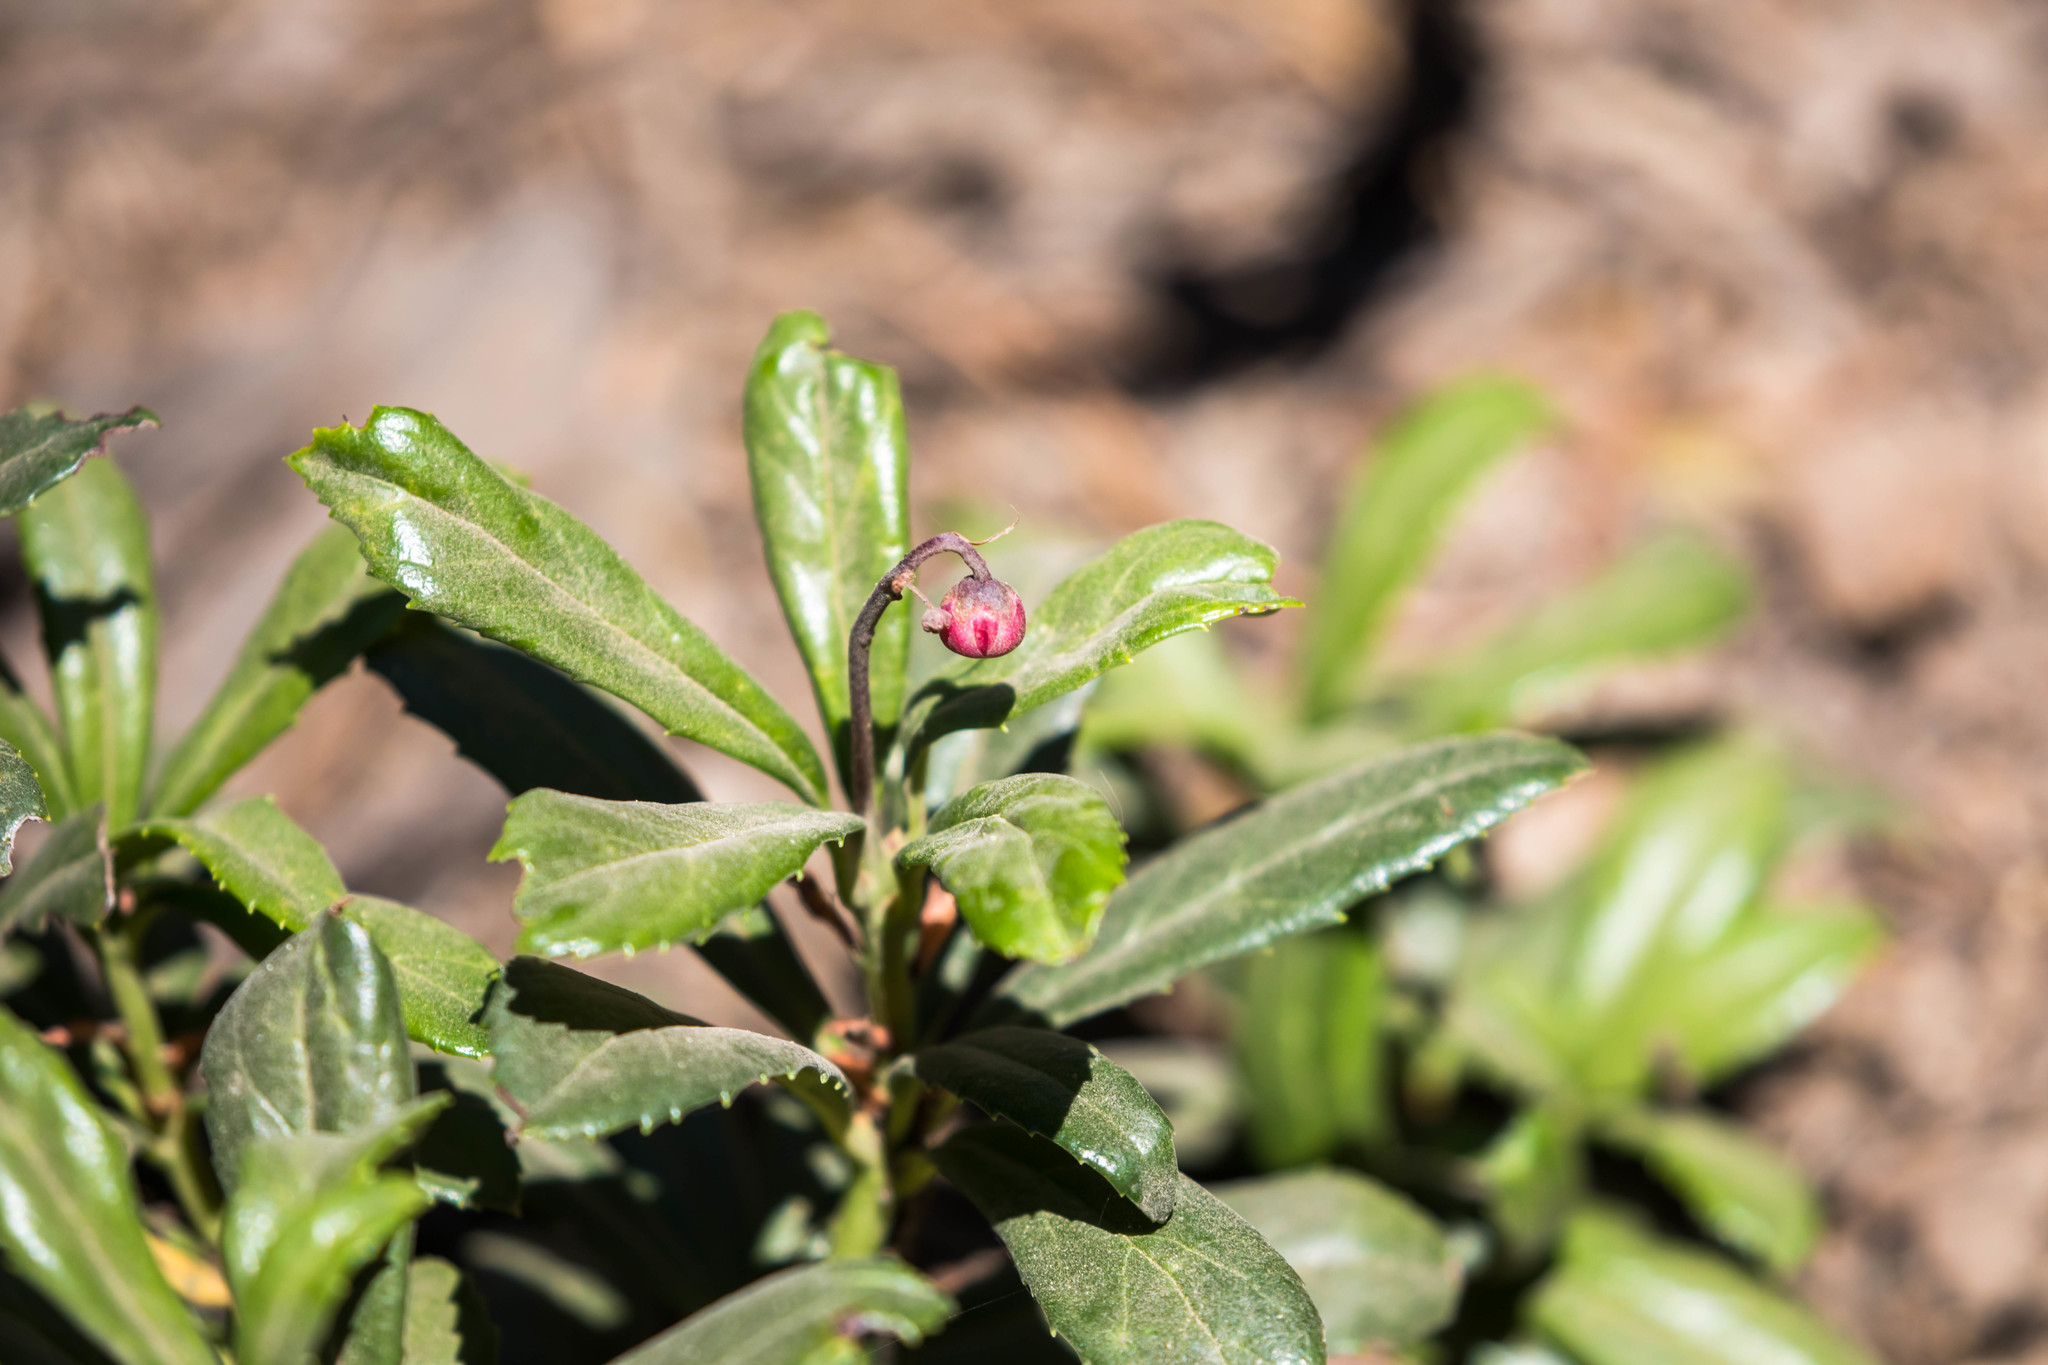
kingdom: Plantae
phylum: Tracheophyta
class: Magnoliopsida
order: Ericales
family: Ericaceae
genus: Chimaphila
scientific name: Chimaphila umbellata
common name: Pipsissewa
